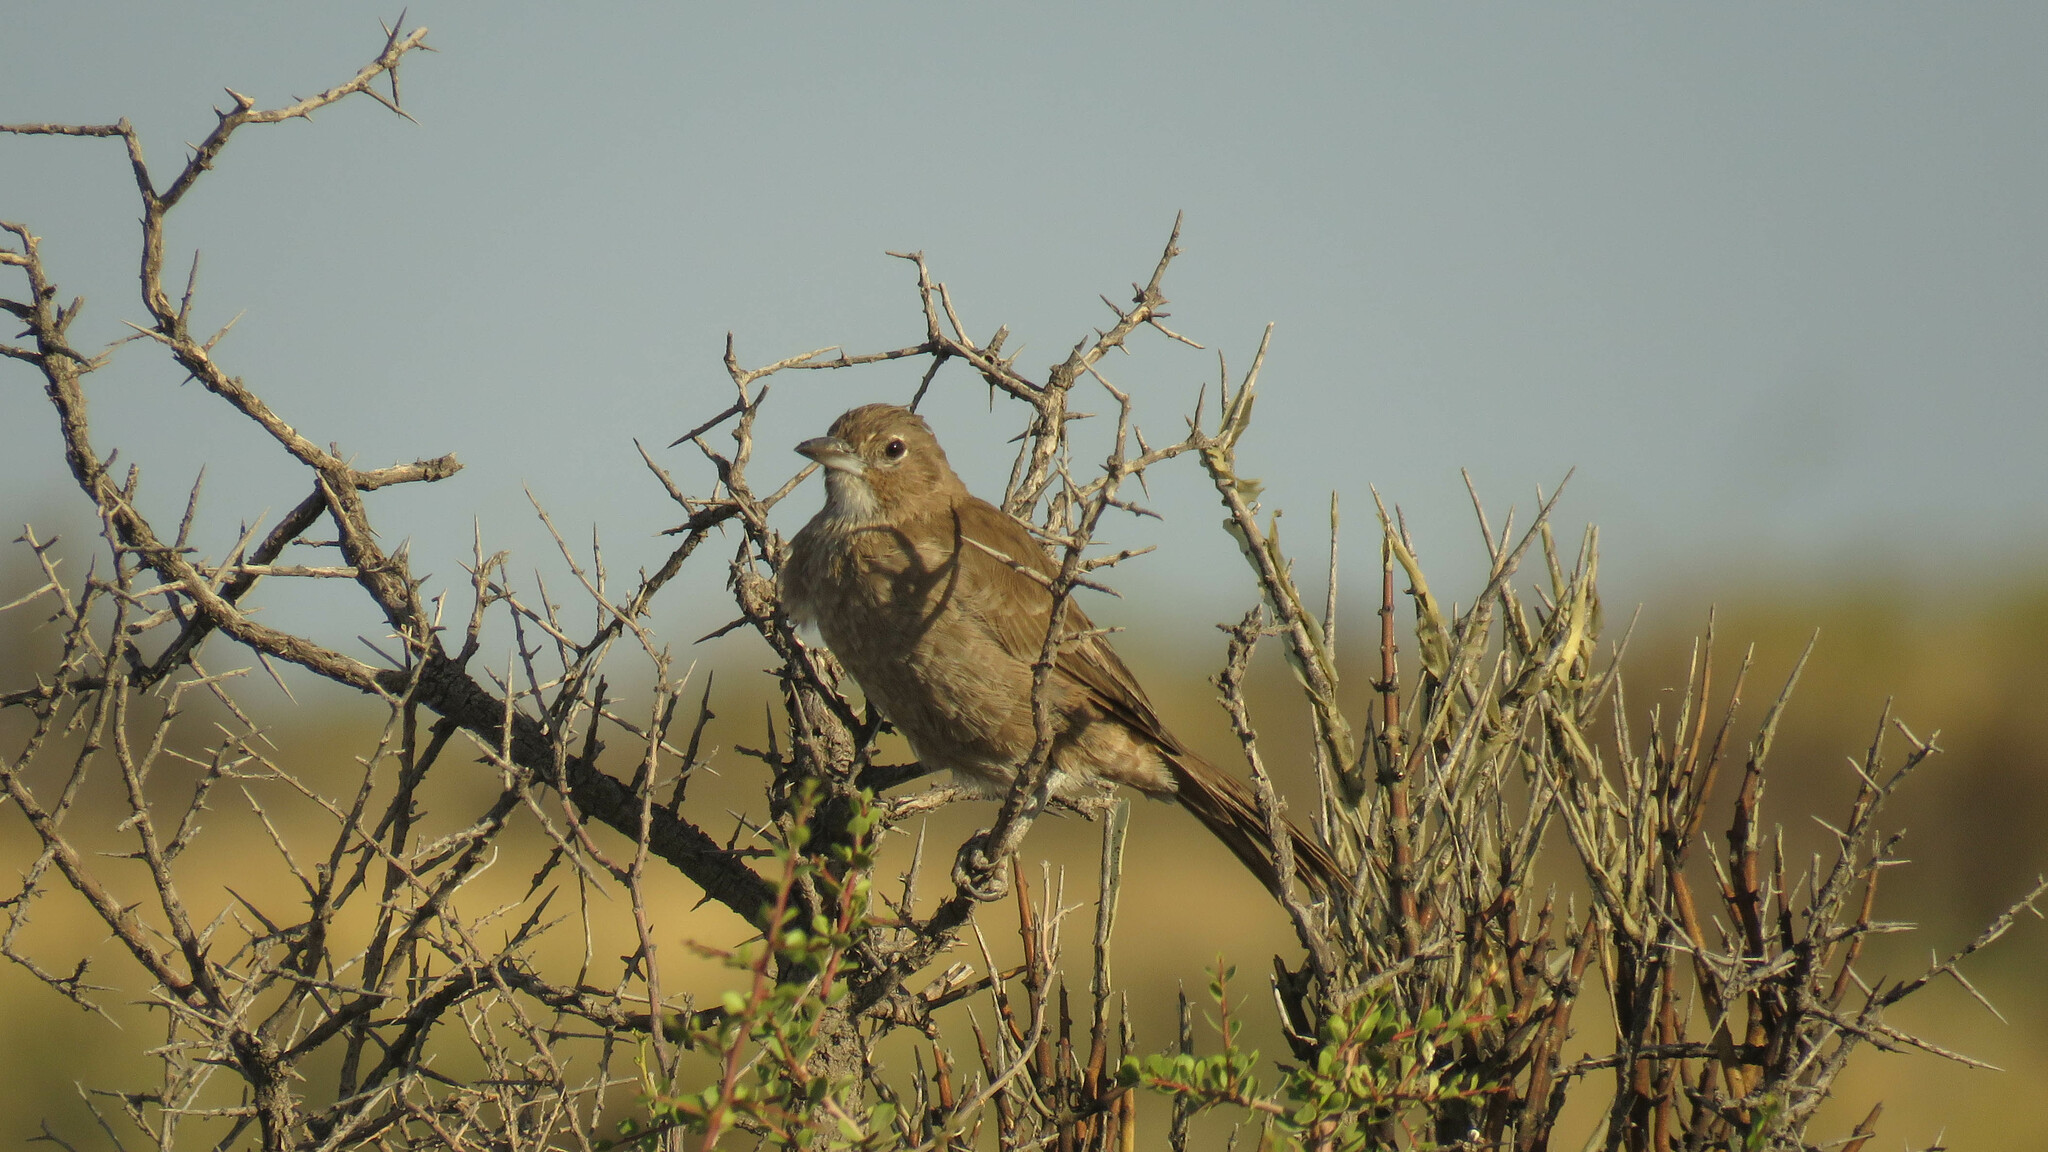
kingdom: Animalia
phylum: Chordata
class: Aves
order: Passeriformes
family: Furnariidae
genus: Pseudoseisura
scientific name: Pseudoseisura gutturalis
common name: White-throated cacholote
